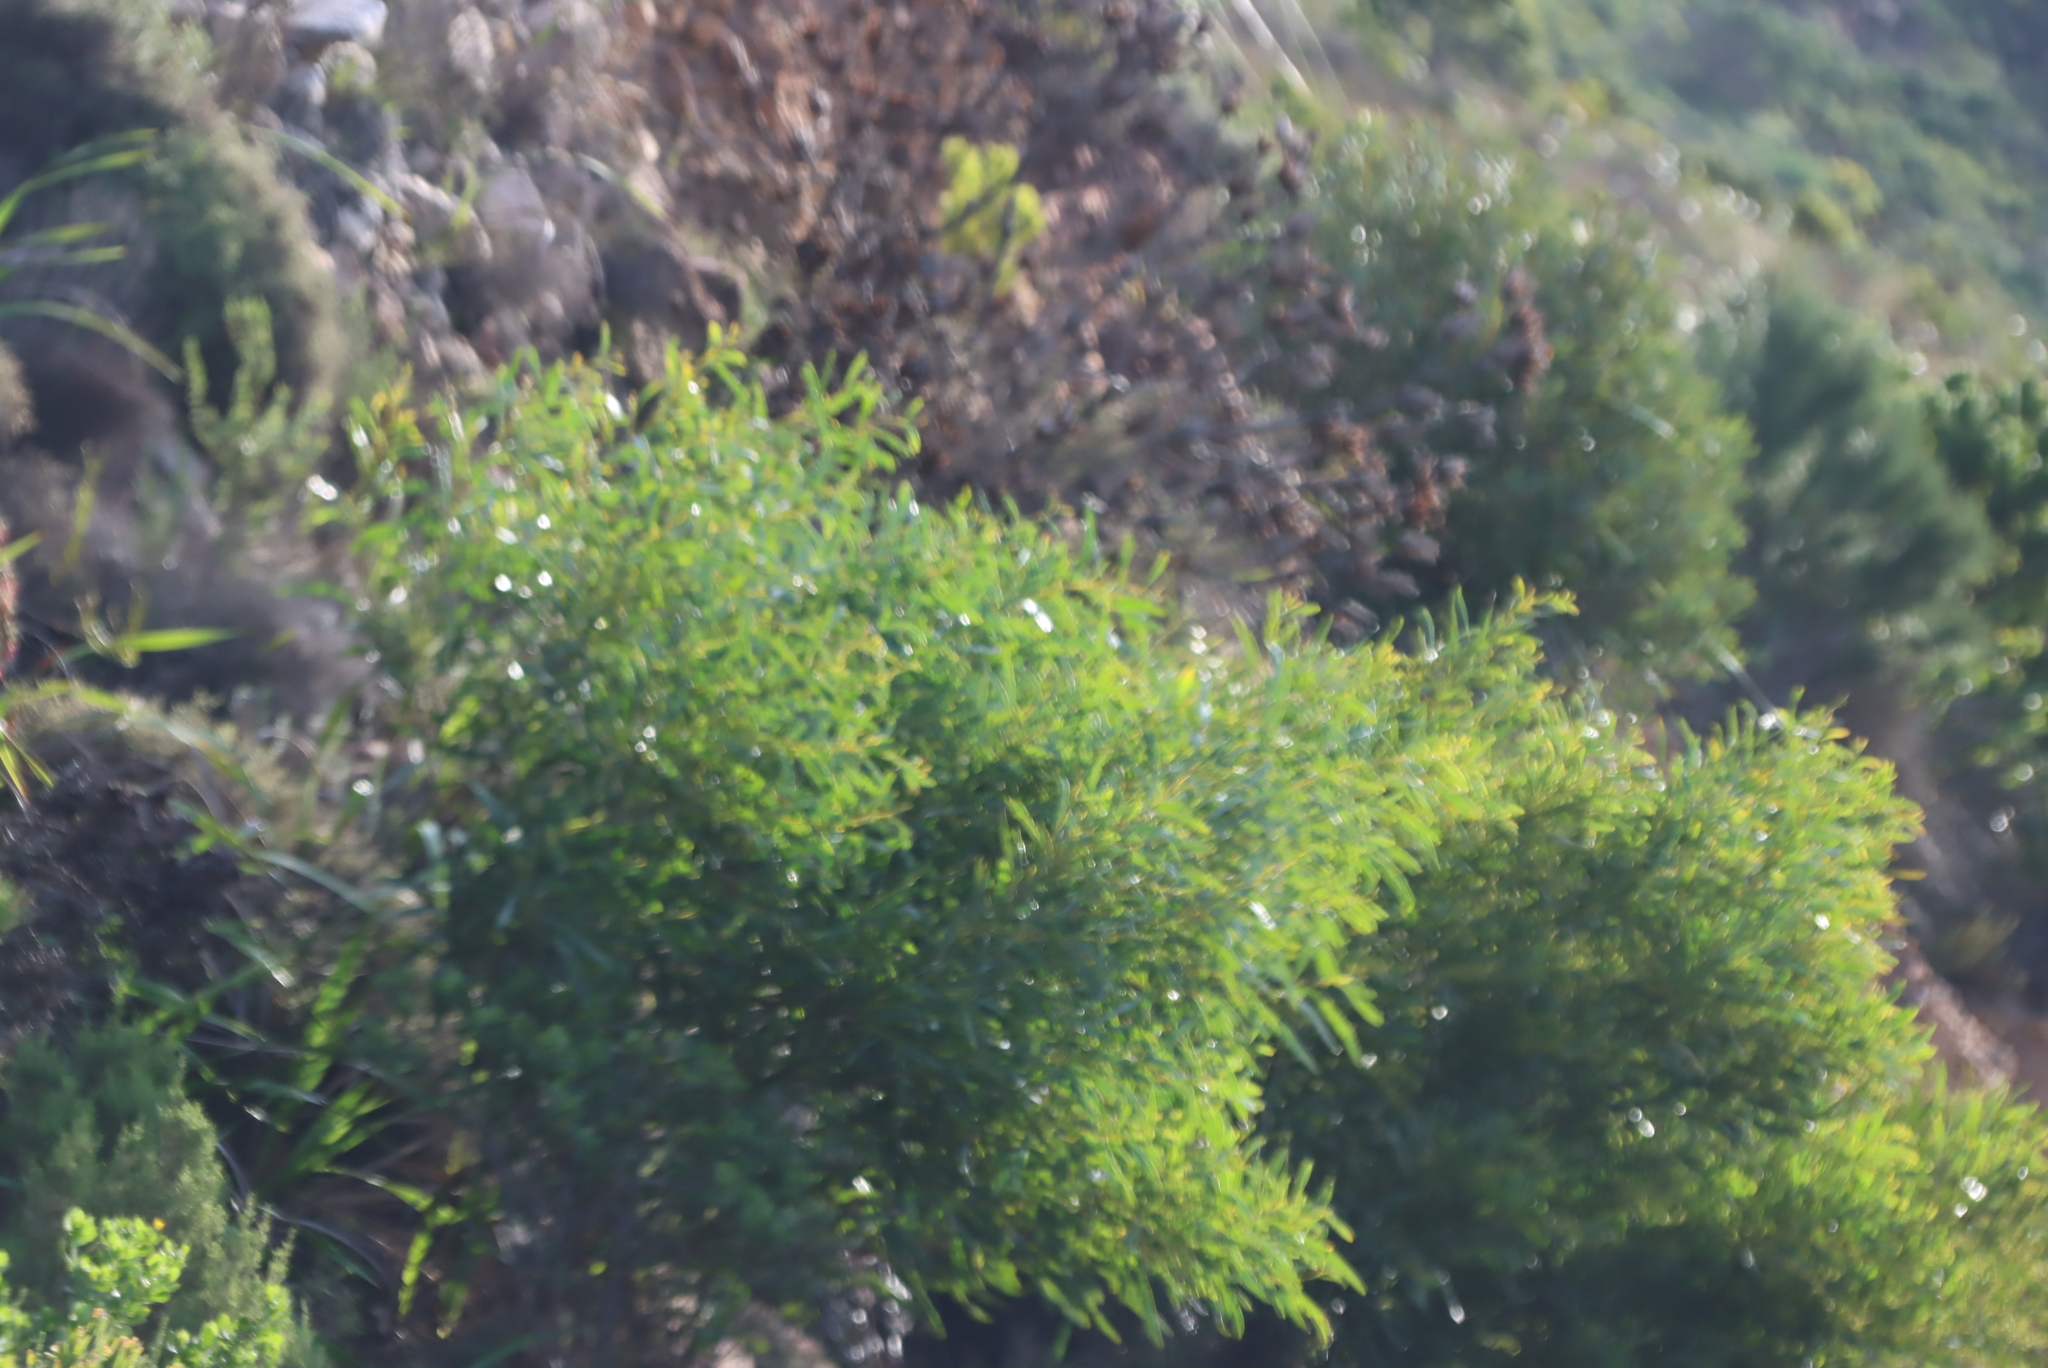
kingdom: Plantae
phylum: Tracheophyta
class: Magnoliopsida
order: Fabales
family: Fabaceae
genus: Acacia
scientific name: Acacia saligna
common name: Orange wattle
